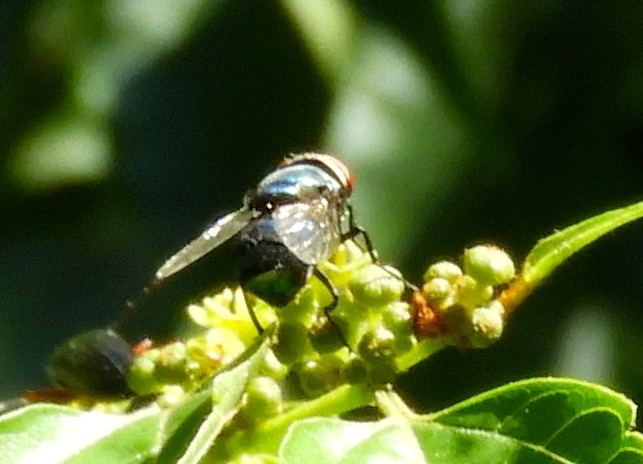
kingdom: Animalia
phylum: Arthropoda
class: Insecta
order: Diptera
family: Calliphoridae
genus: Chrysomya
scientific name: Chrysomya megacephala
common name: Blow fly
